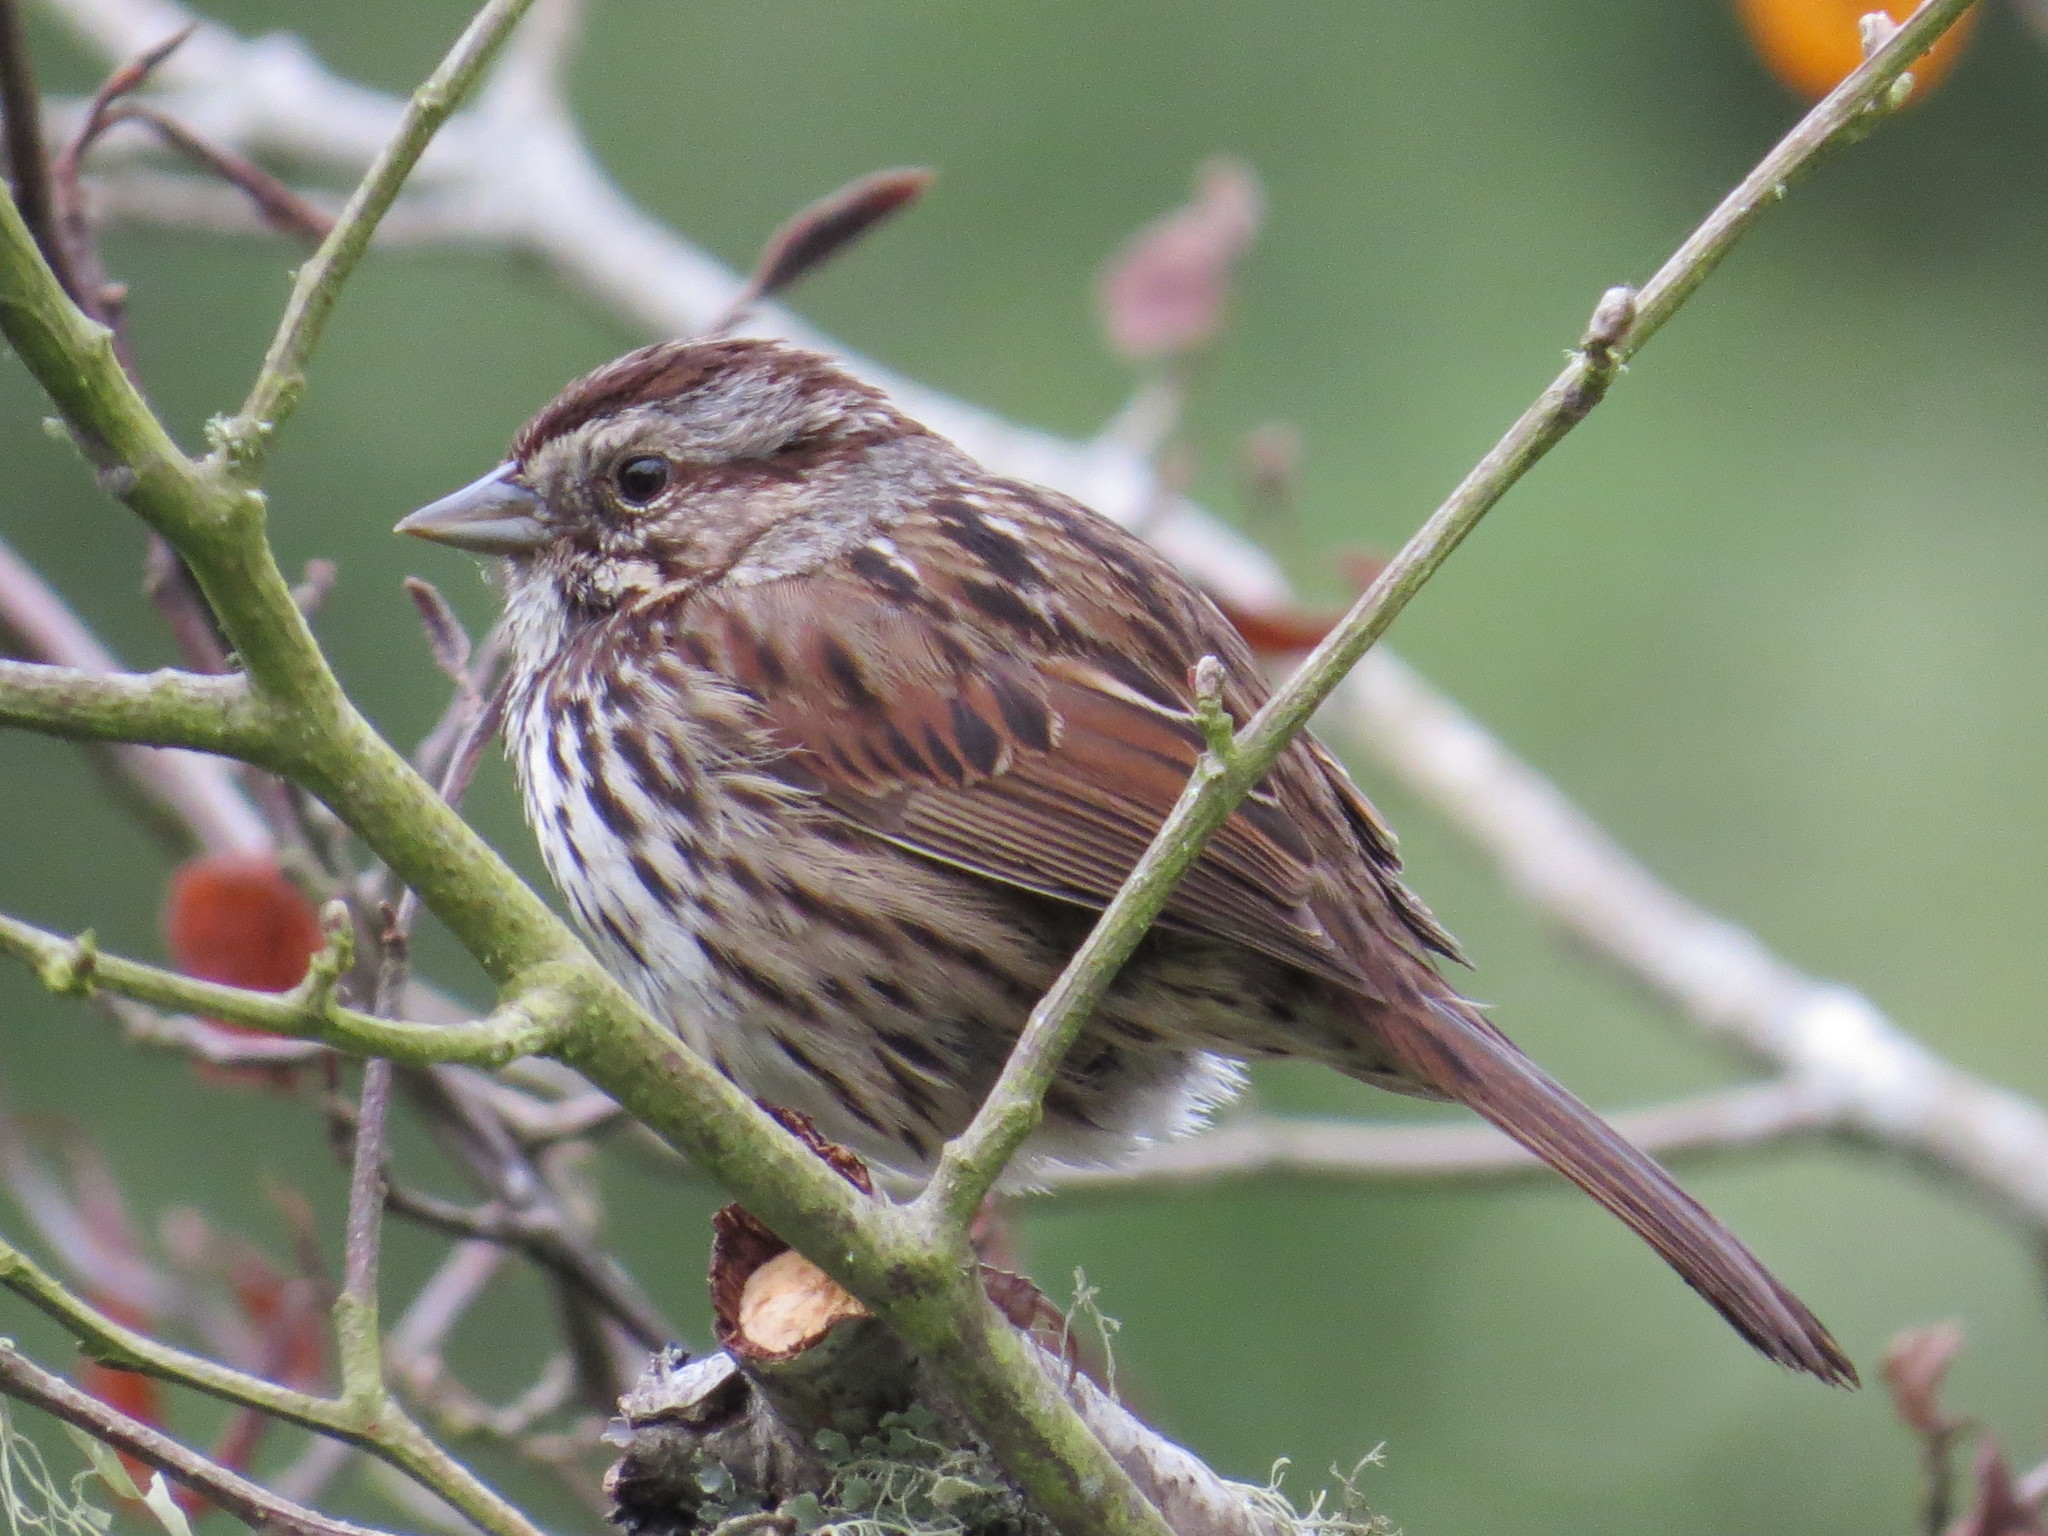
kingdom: Animalia
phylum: Chordata
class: Aves
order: Passeriformes
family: Passerellidae
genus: Melospiza
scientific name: Melospiza melodia
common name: Song sparrow
